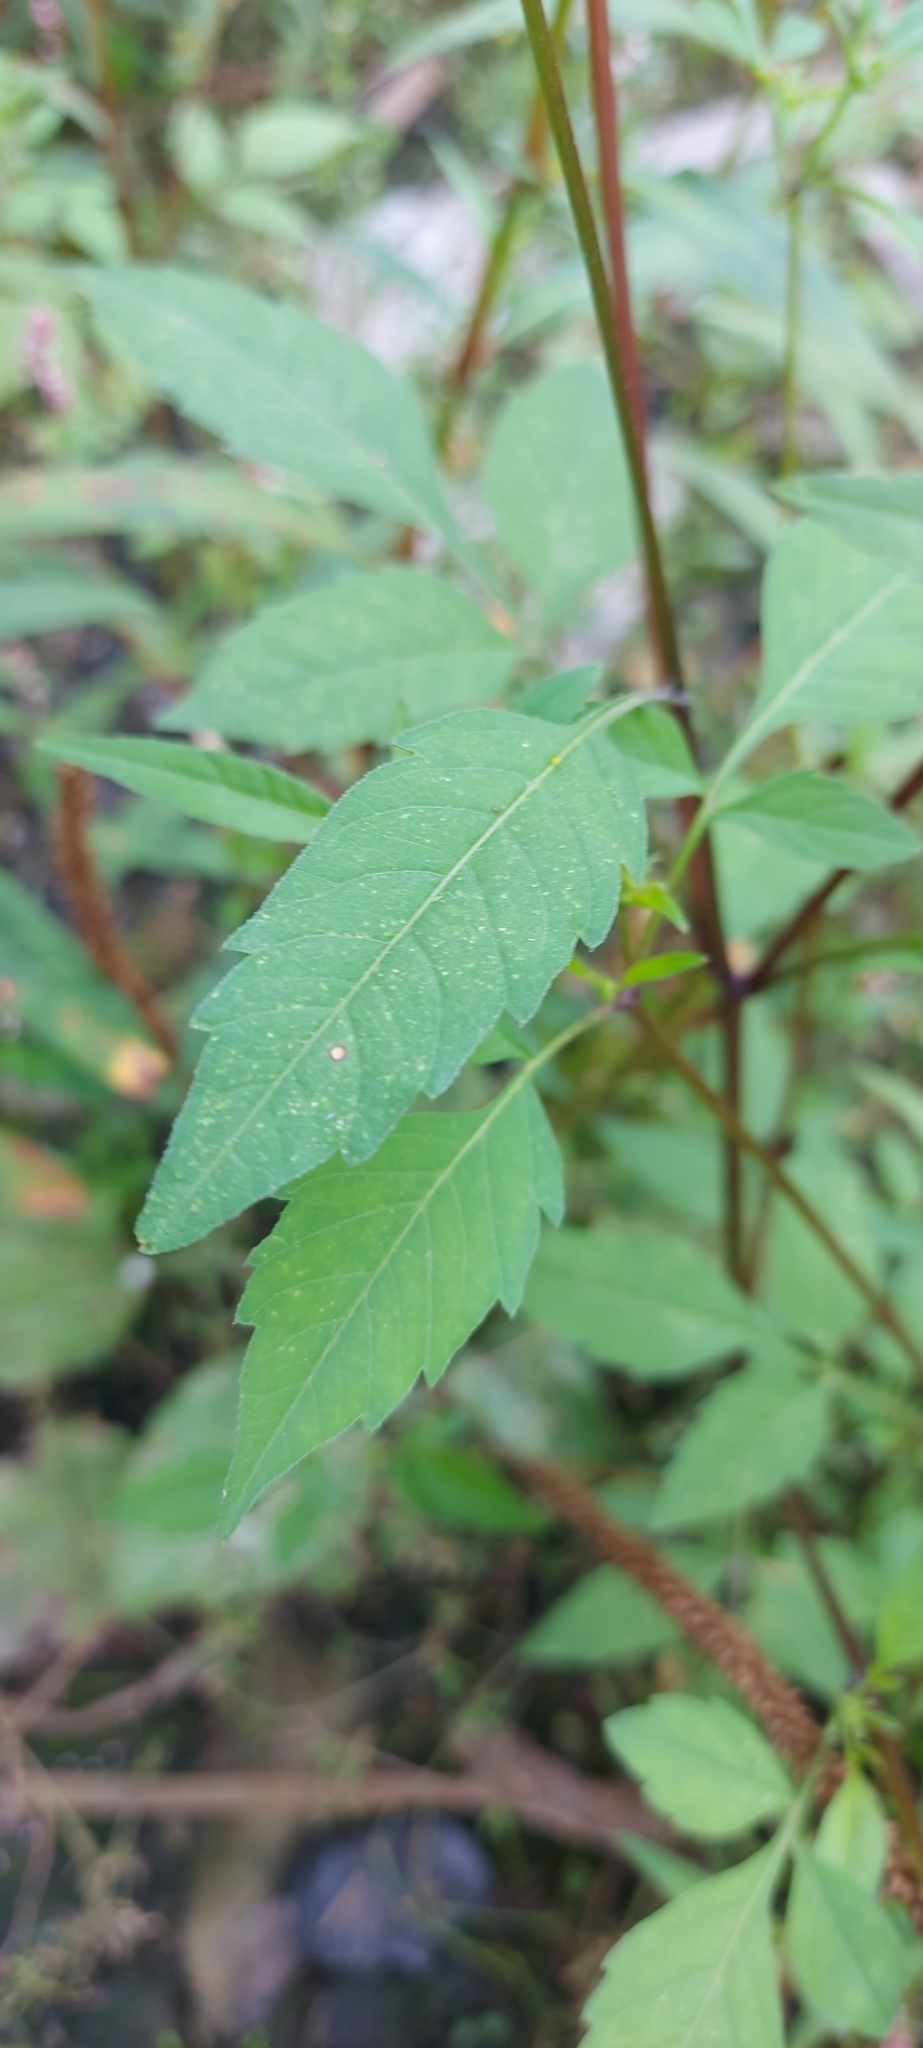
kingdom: Plantae
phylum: Tracheophyta
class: Magnoliopsida
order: Asterales
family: Asteraceae
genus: Bidens
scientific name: Bidens frondosa
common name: Beggarticks
